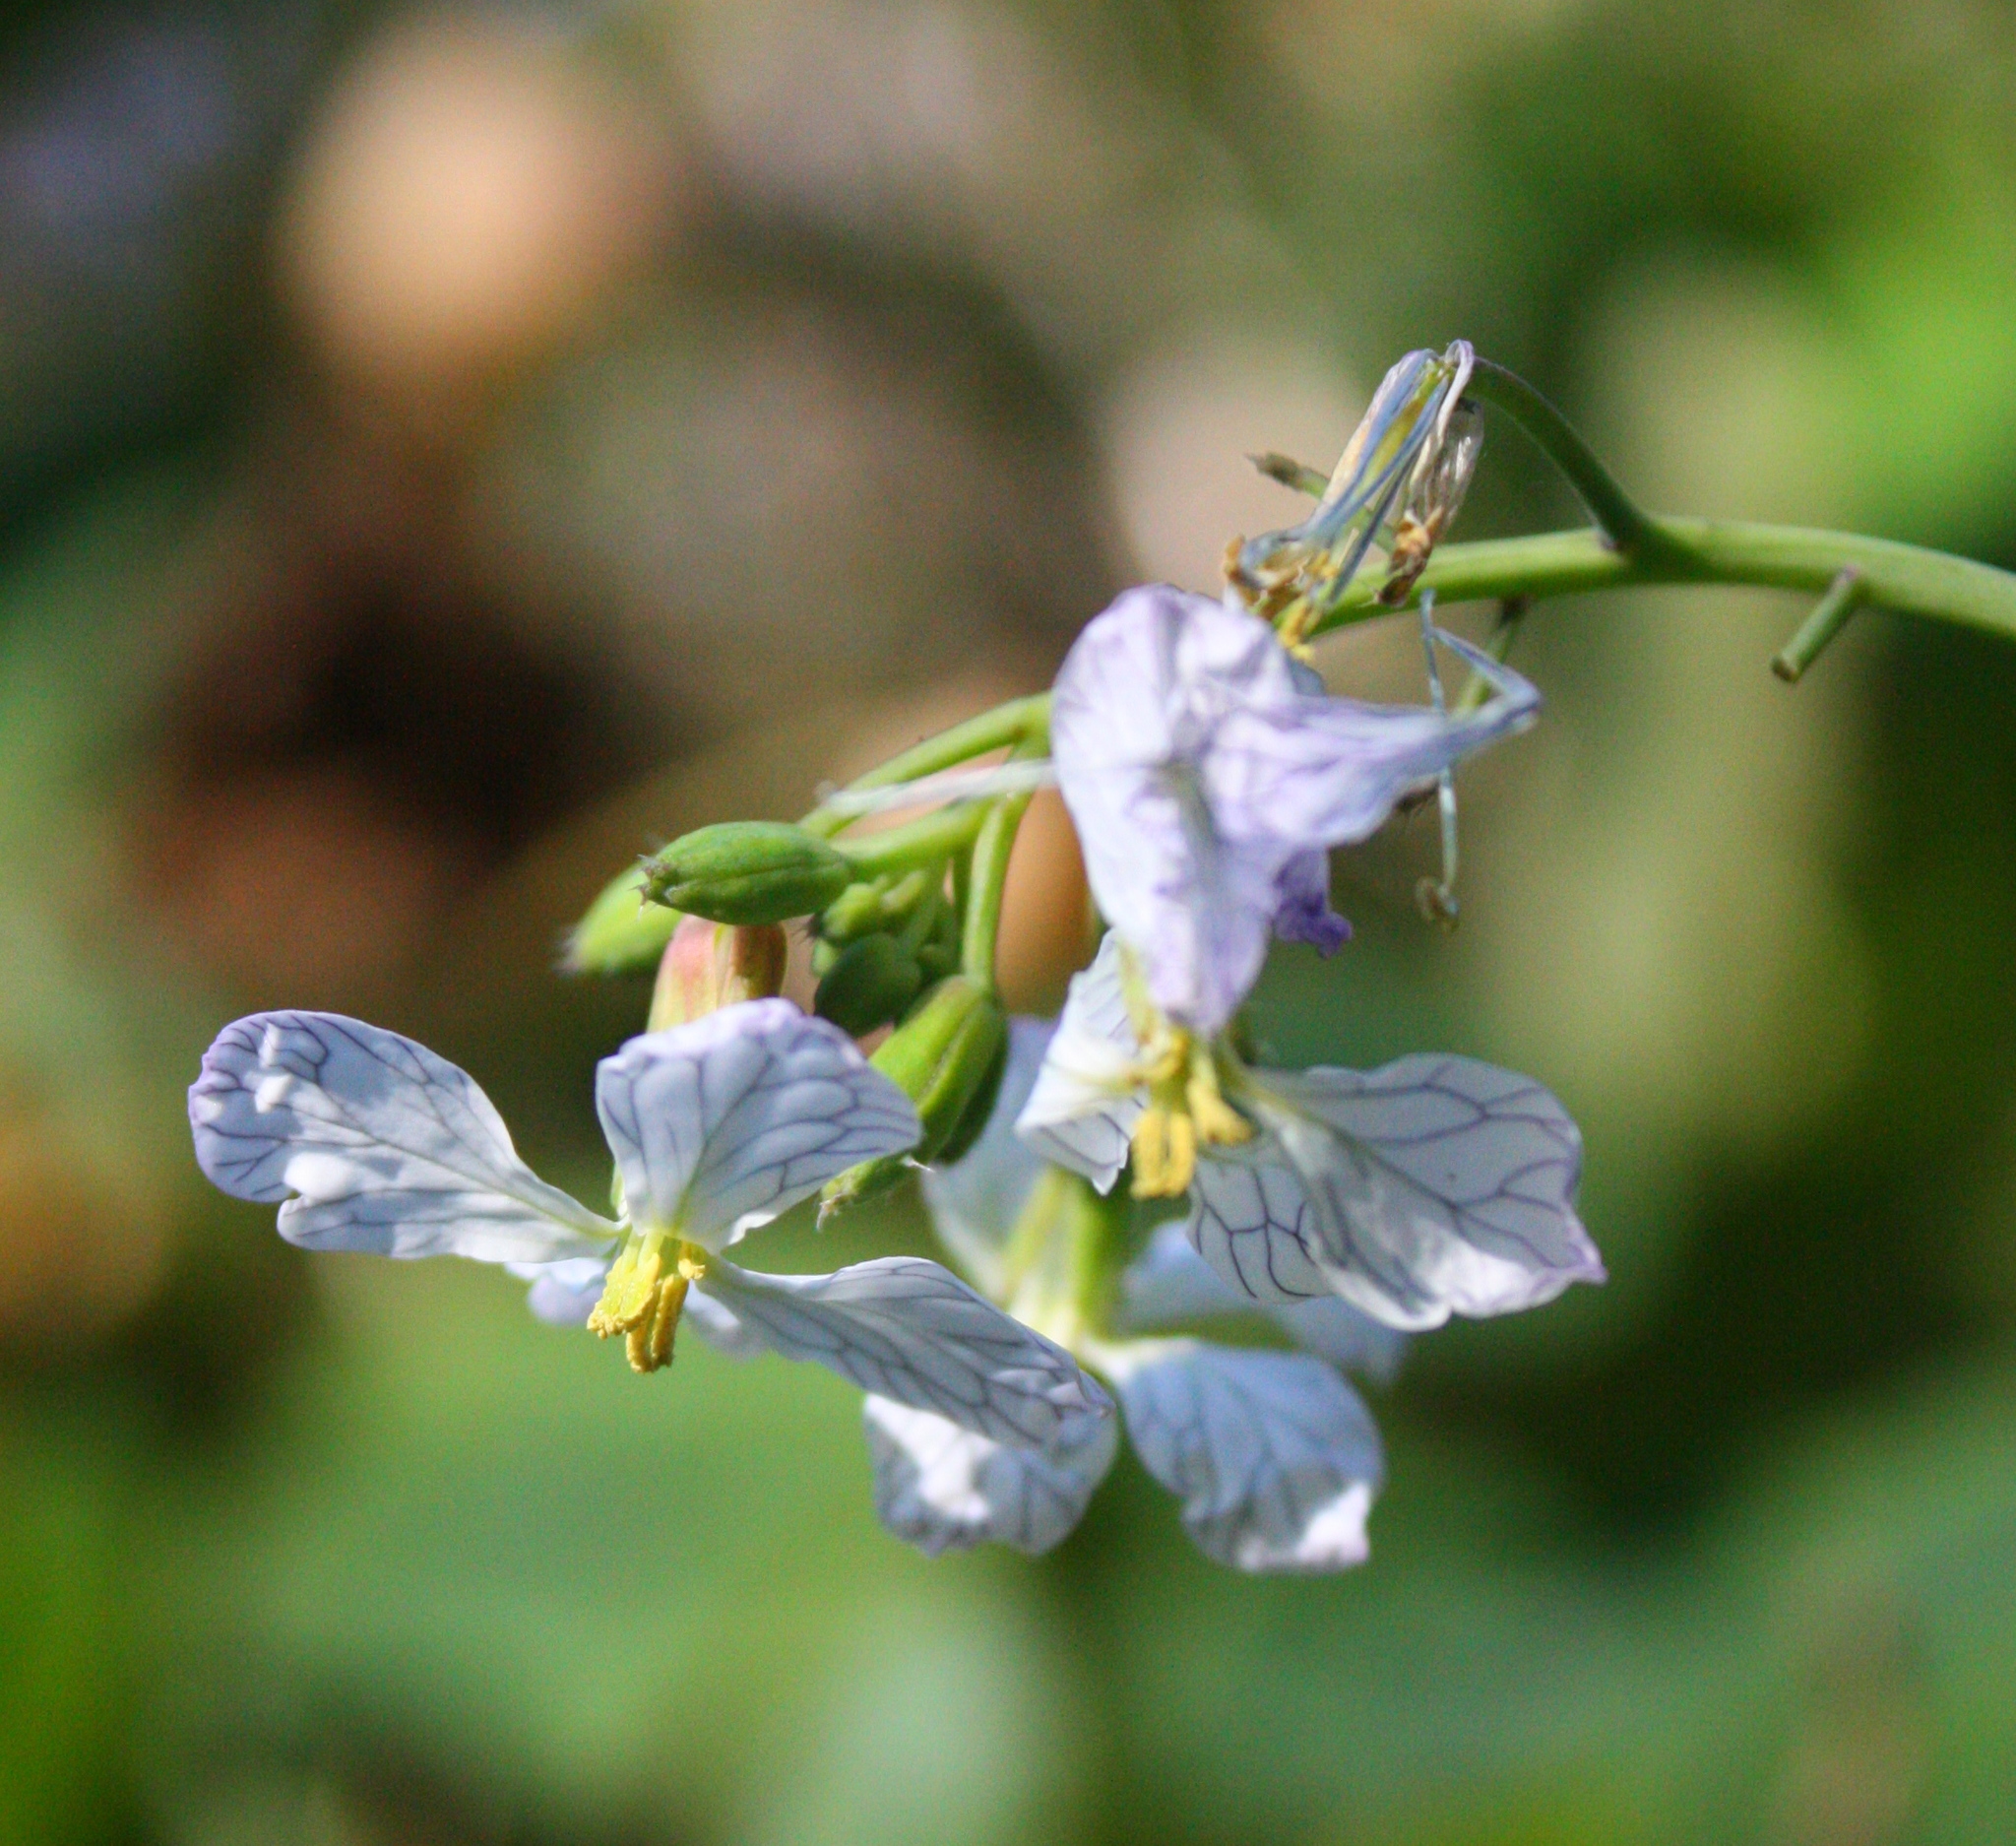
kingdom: Plantae
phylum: Tracheophyta
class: Magnoliopsida
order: Brassicales
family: Brassicaceae
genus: Raphanus
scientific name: Raphanus sativus
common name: Cultivated radish
